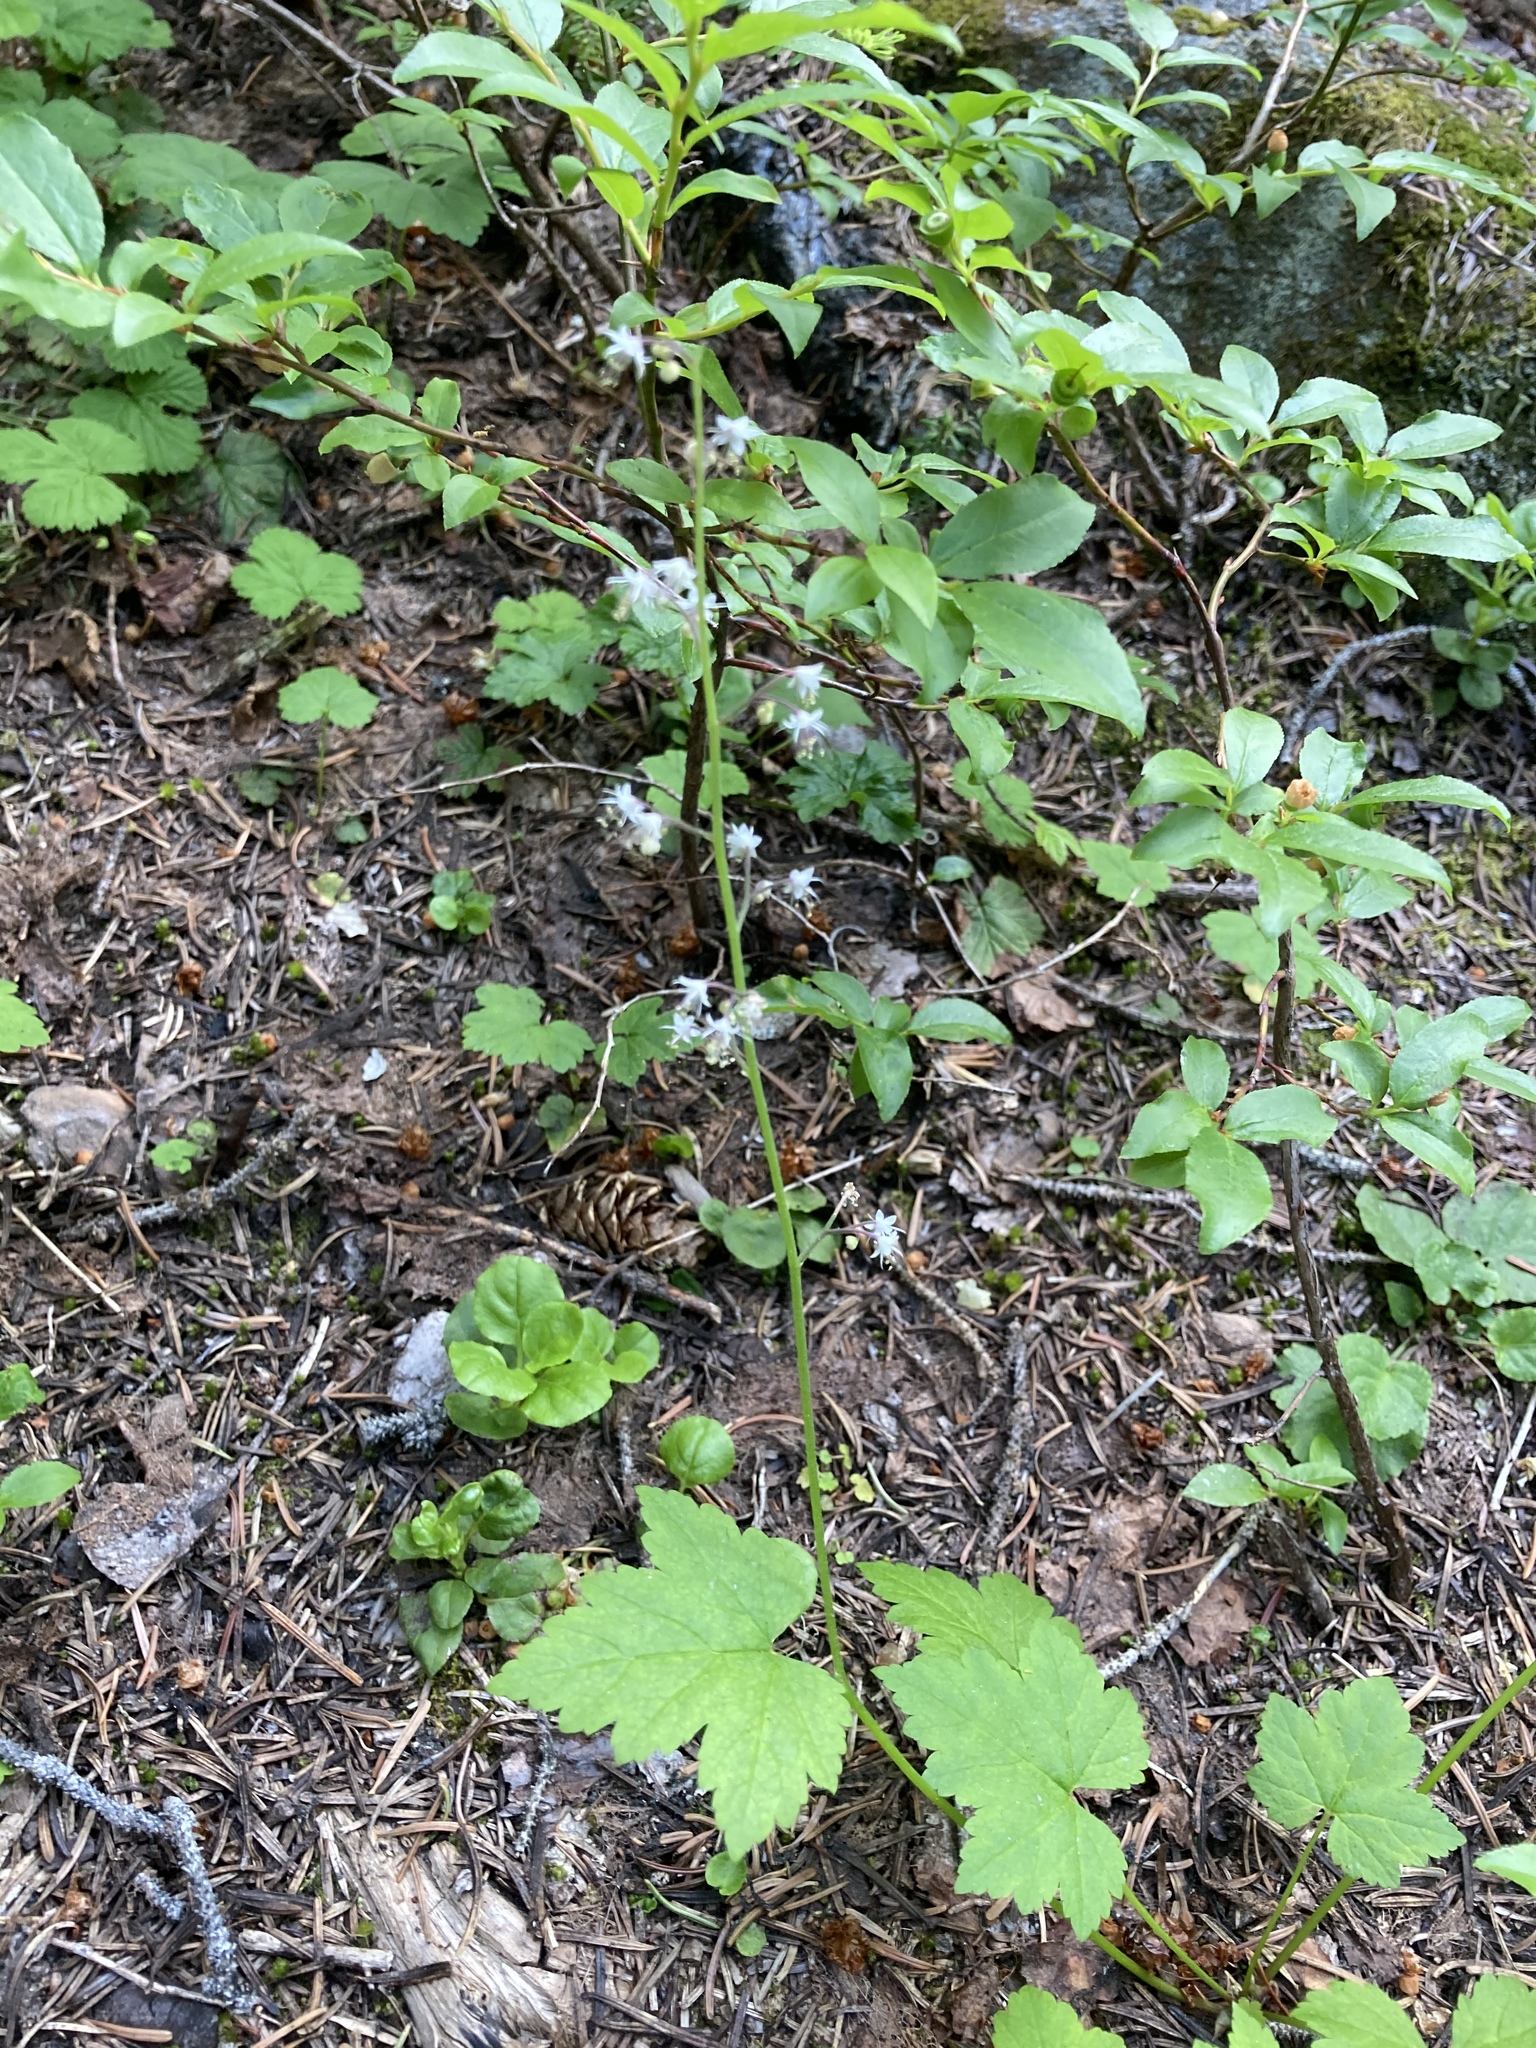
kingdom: Plantae
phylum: Tracheophyta
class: Magnoliopsida
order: Saxifragales
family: Saxifragaceae
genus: Tiarella
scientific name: Tiarella trifoliata
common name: Sugar-scoop
